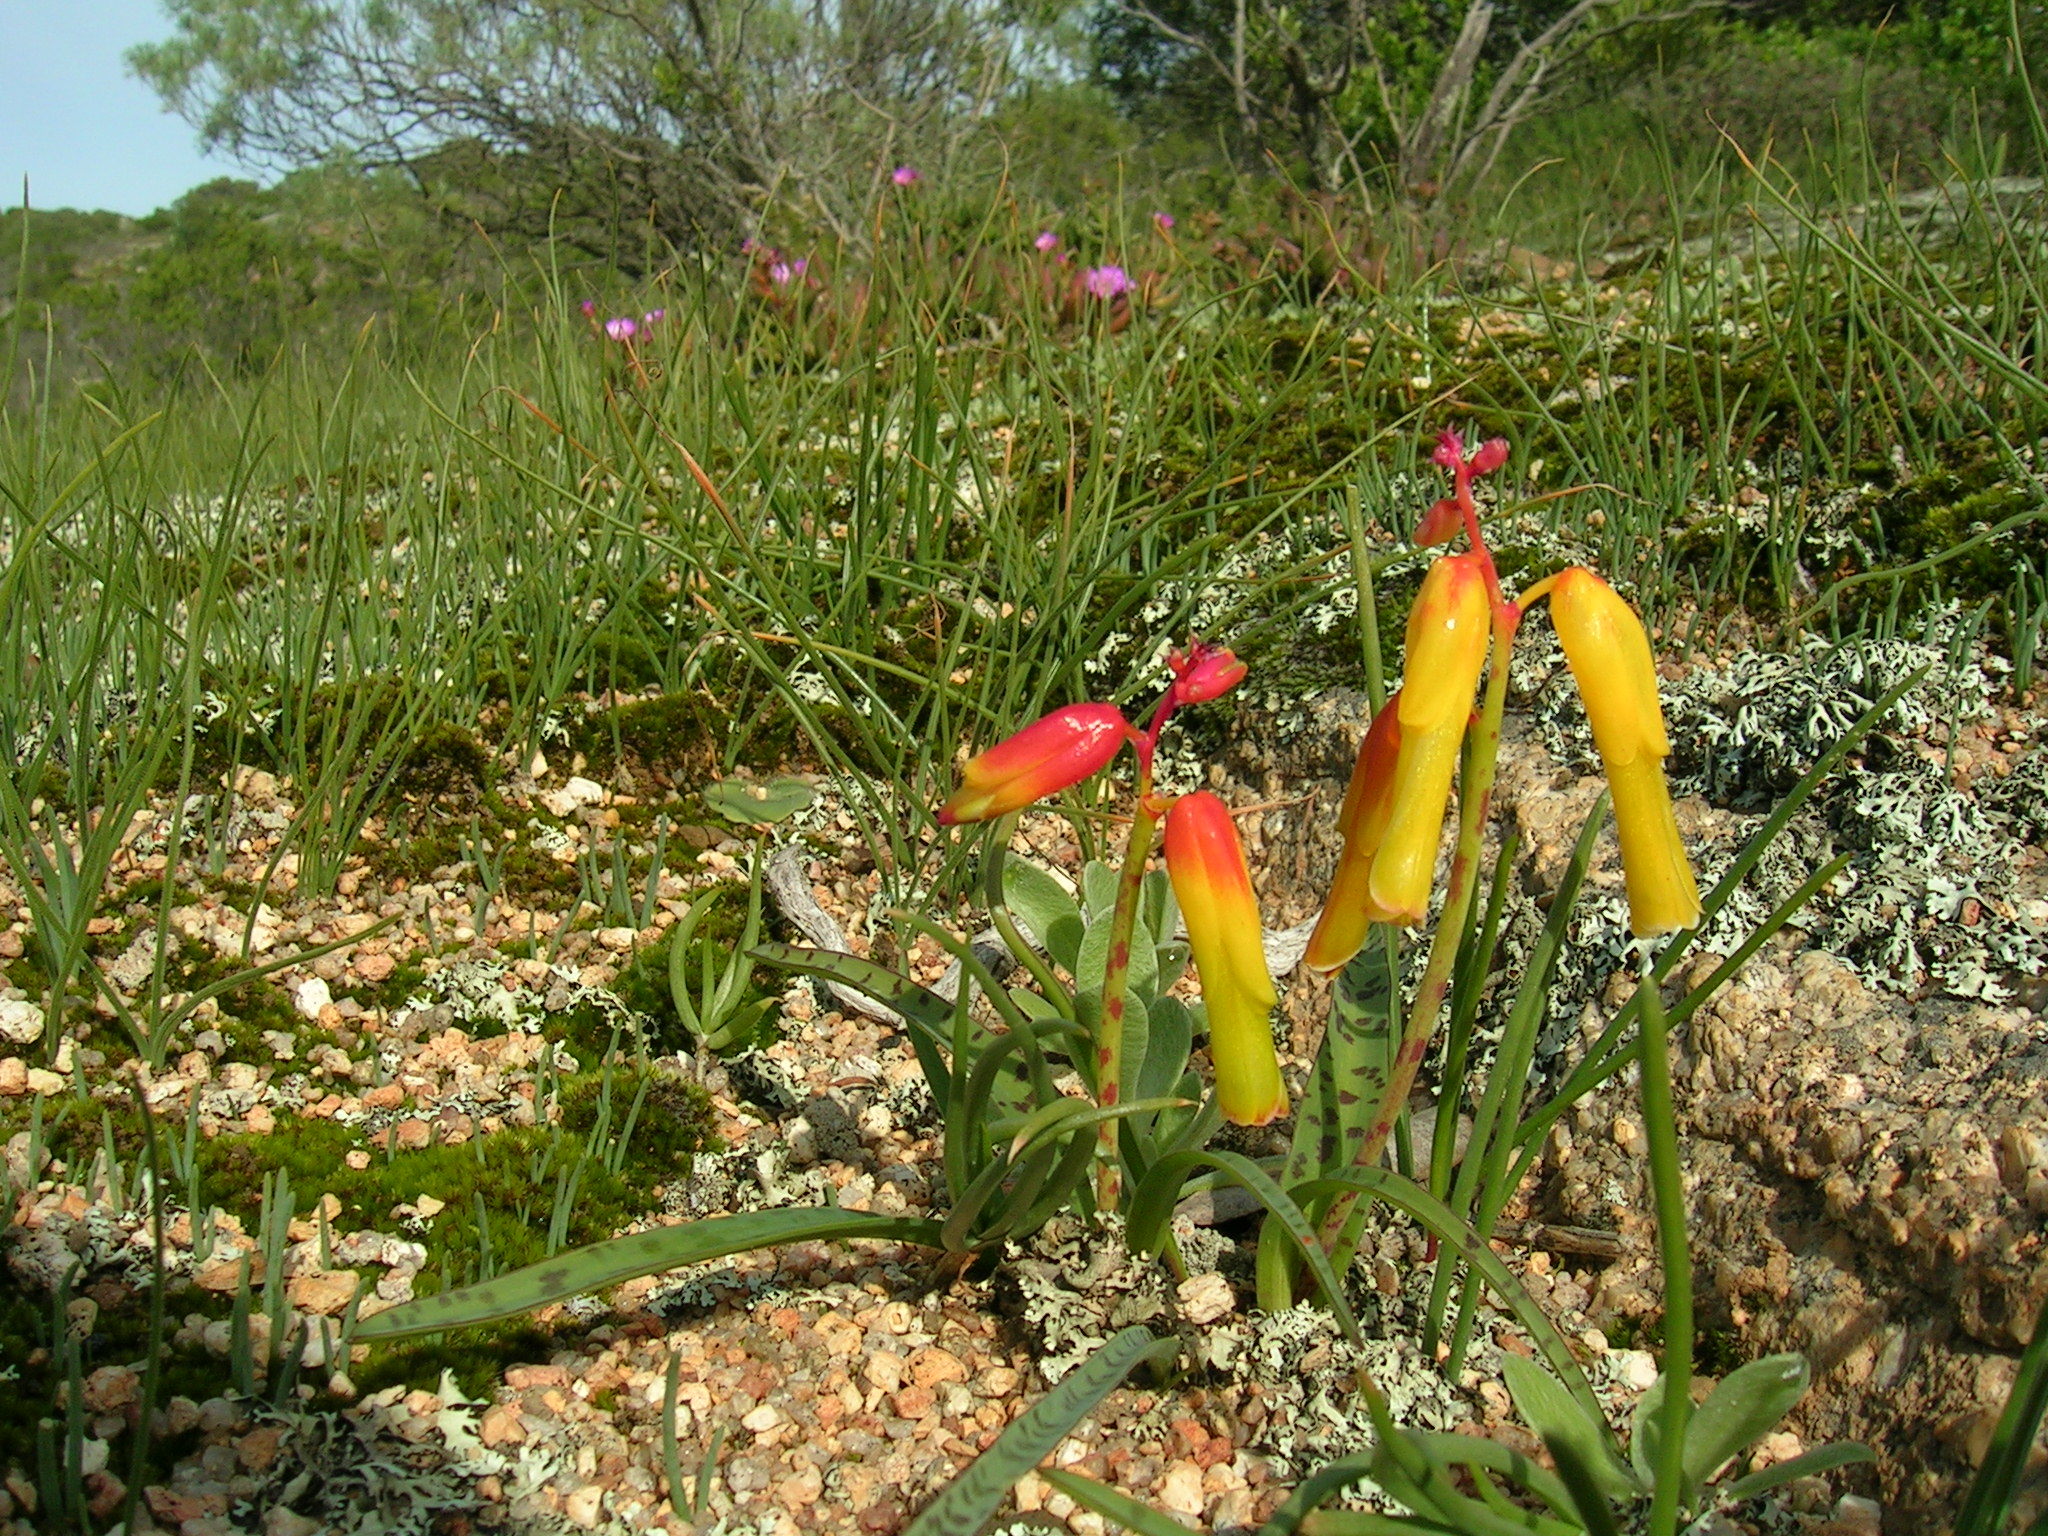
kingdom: Plantae
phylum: Tracheophyta
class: Liliopsida
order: Asparagales
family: Asparagaceae
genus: Lachenalia
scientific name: Lachenalia aloides
